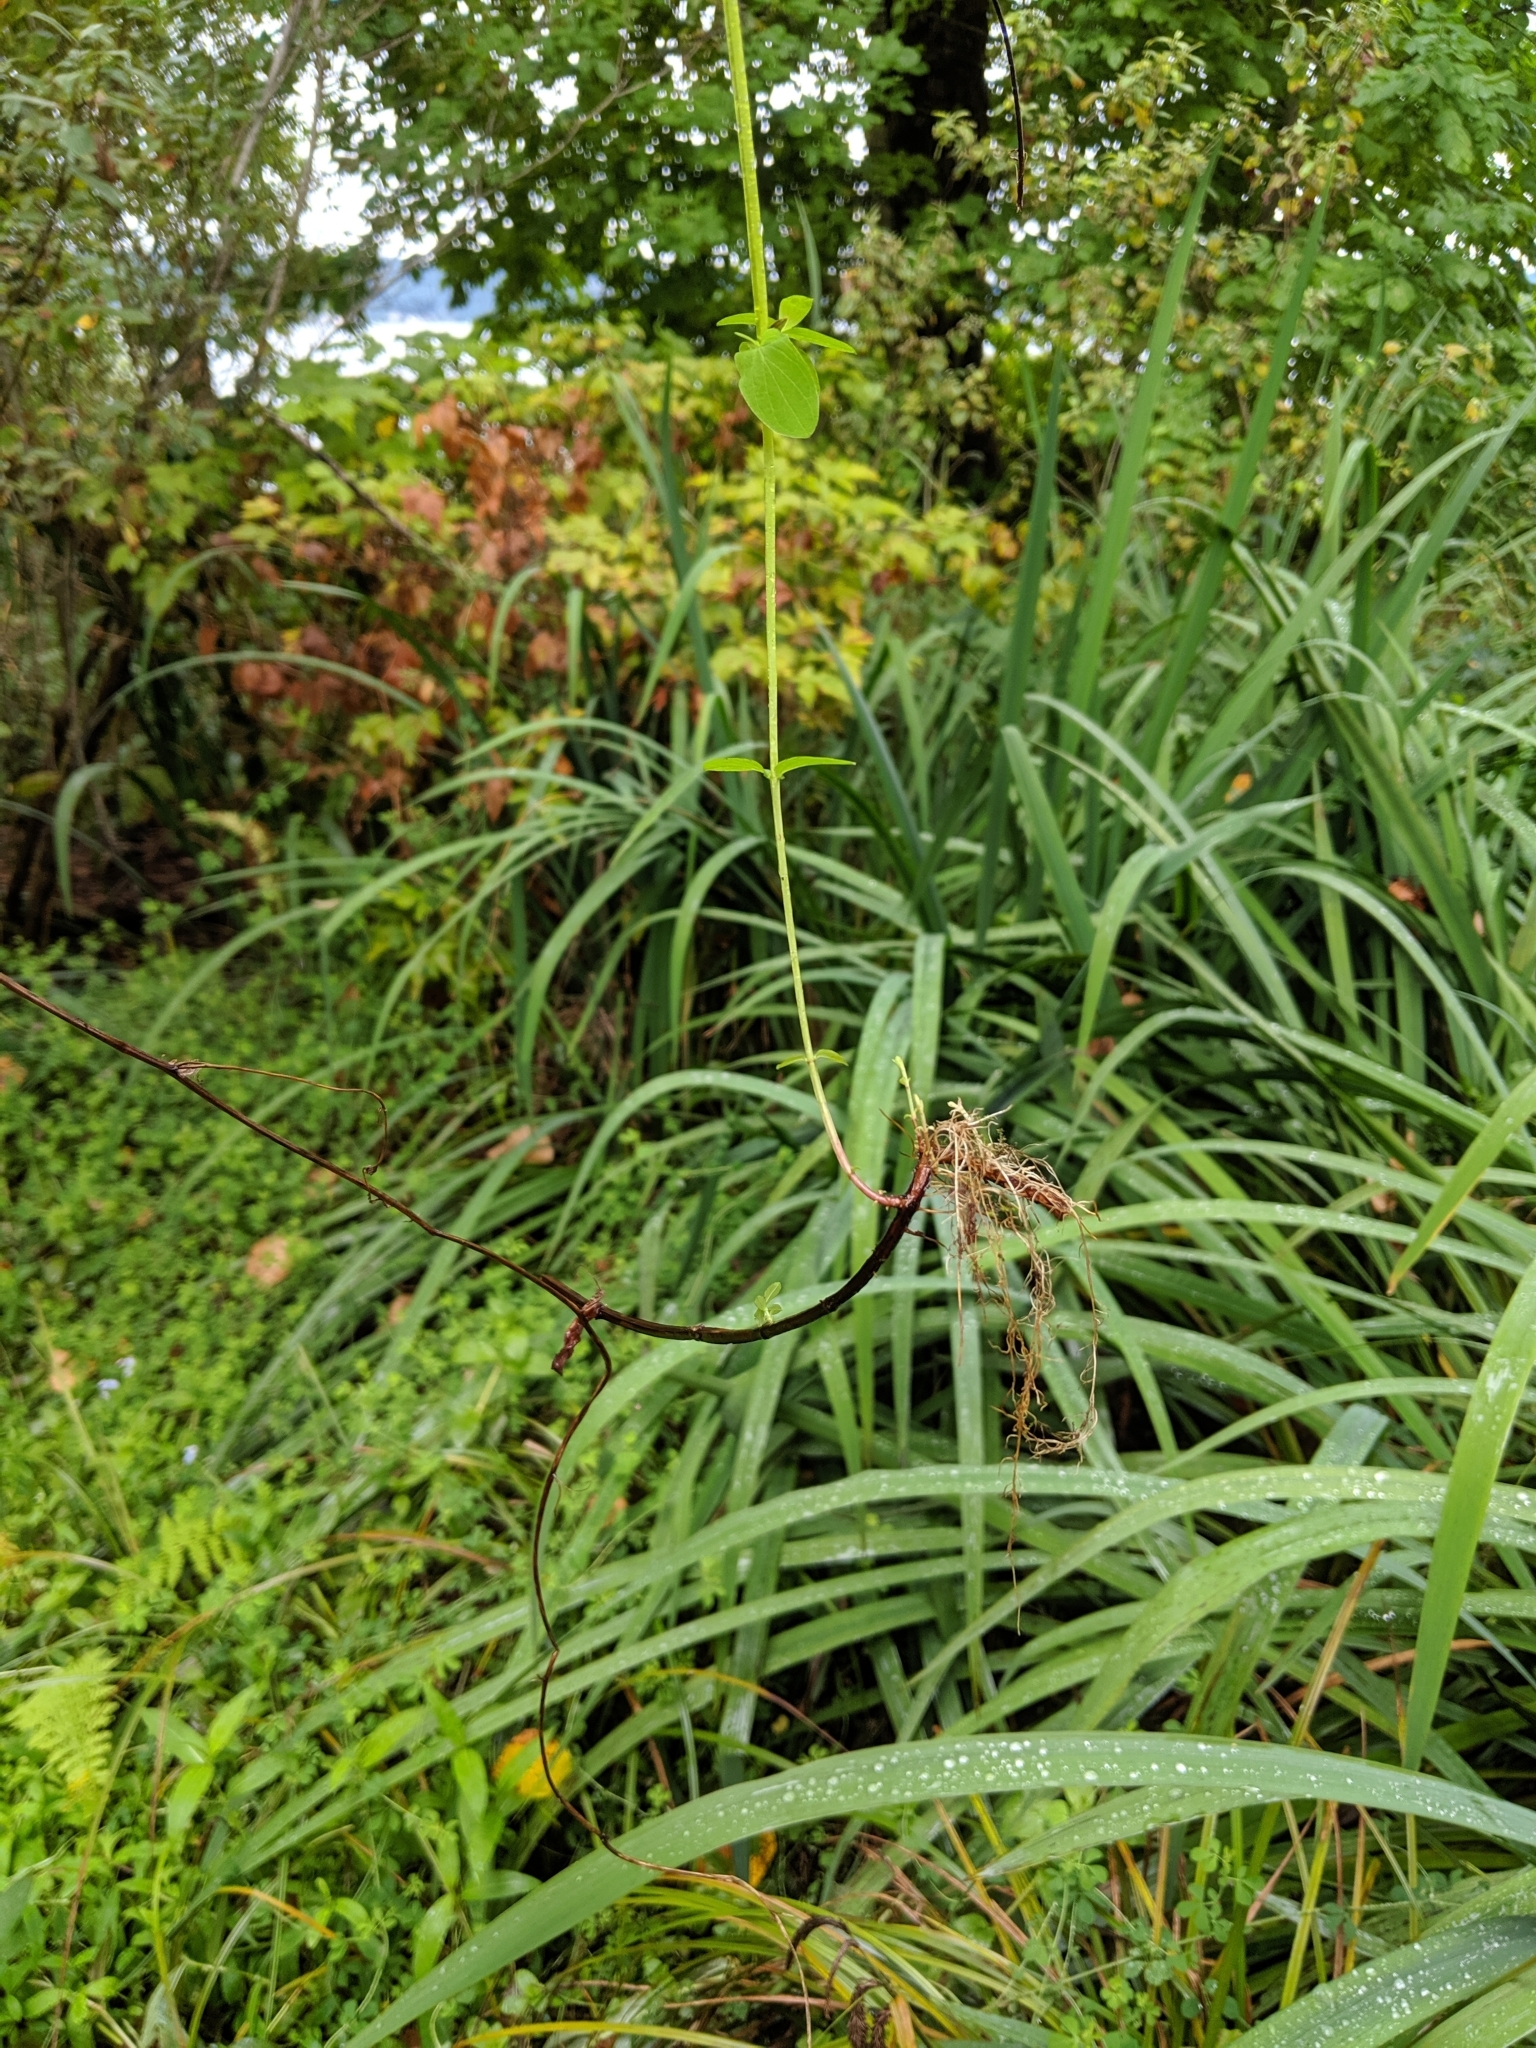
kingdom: Plantae
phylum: Tracheophyta
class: Magnoliopsida
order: Malpighiales
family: Hypericaceae
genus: Hypericum
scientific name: Hypericum tetrapterum
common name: Square-stalked st. john's-wort
